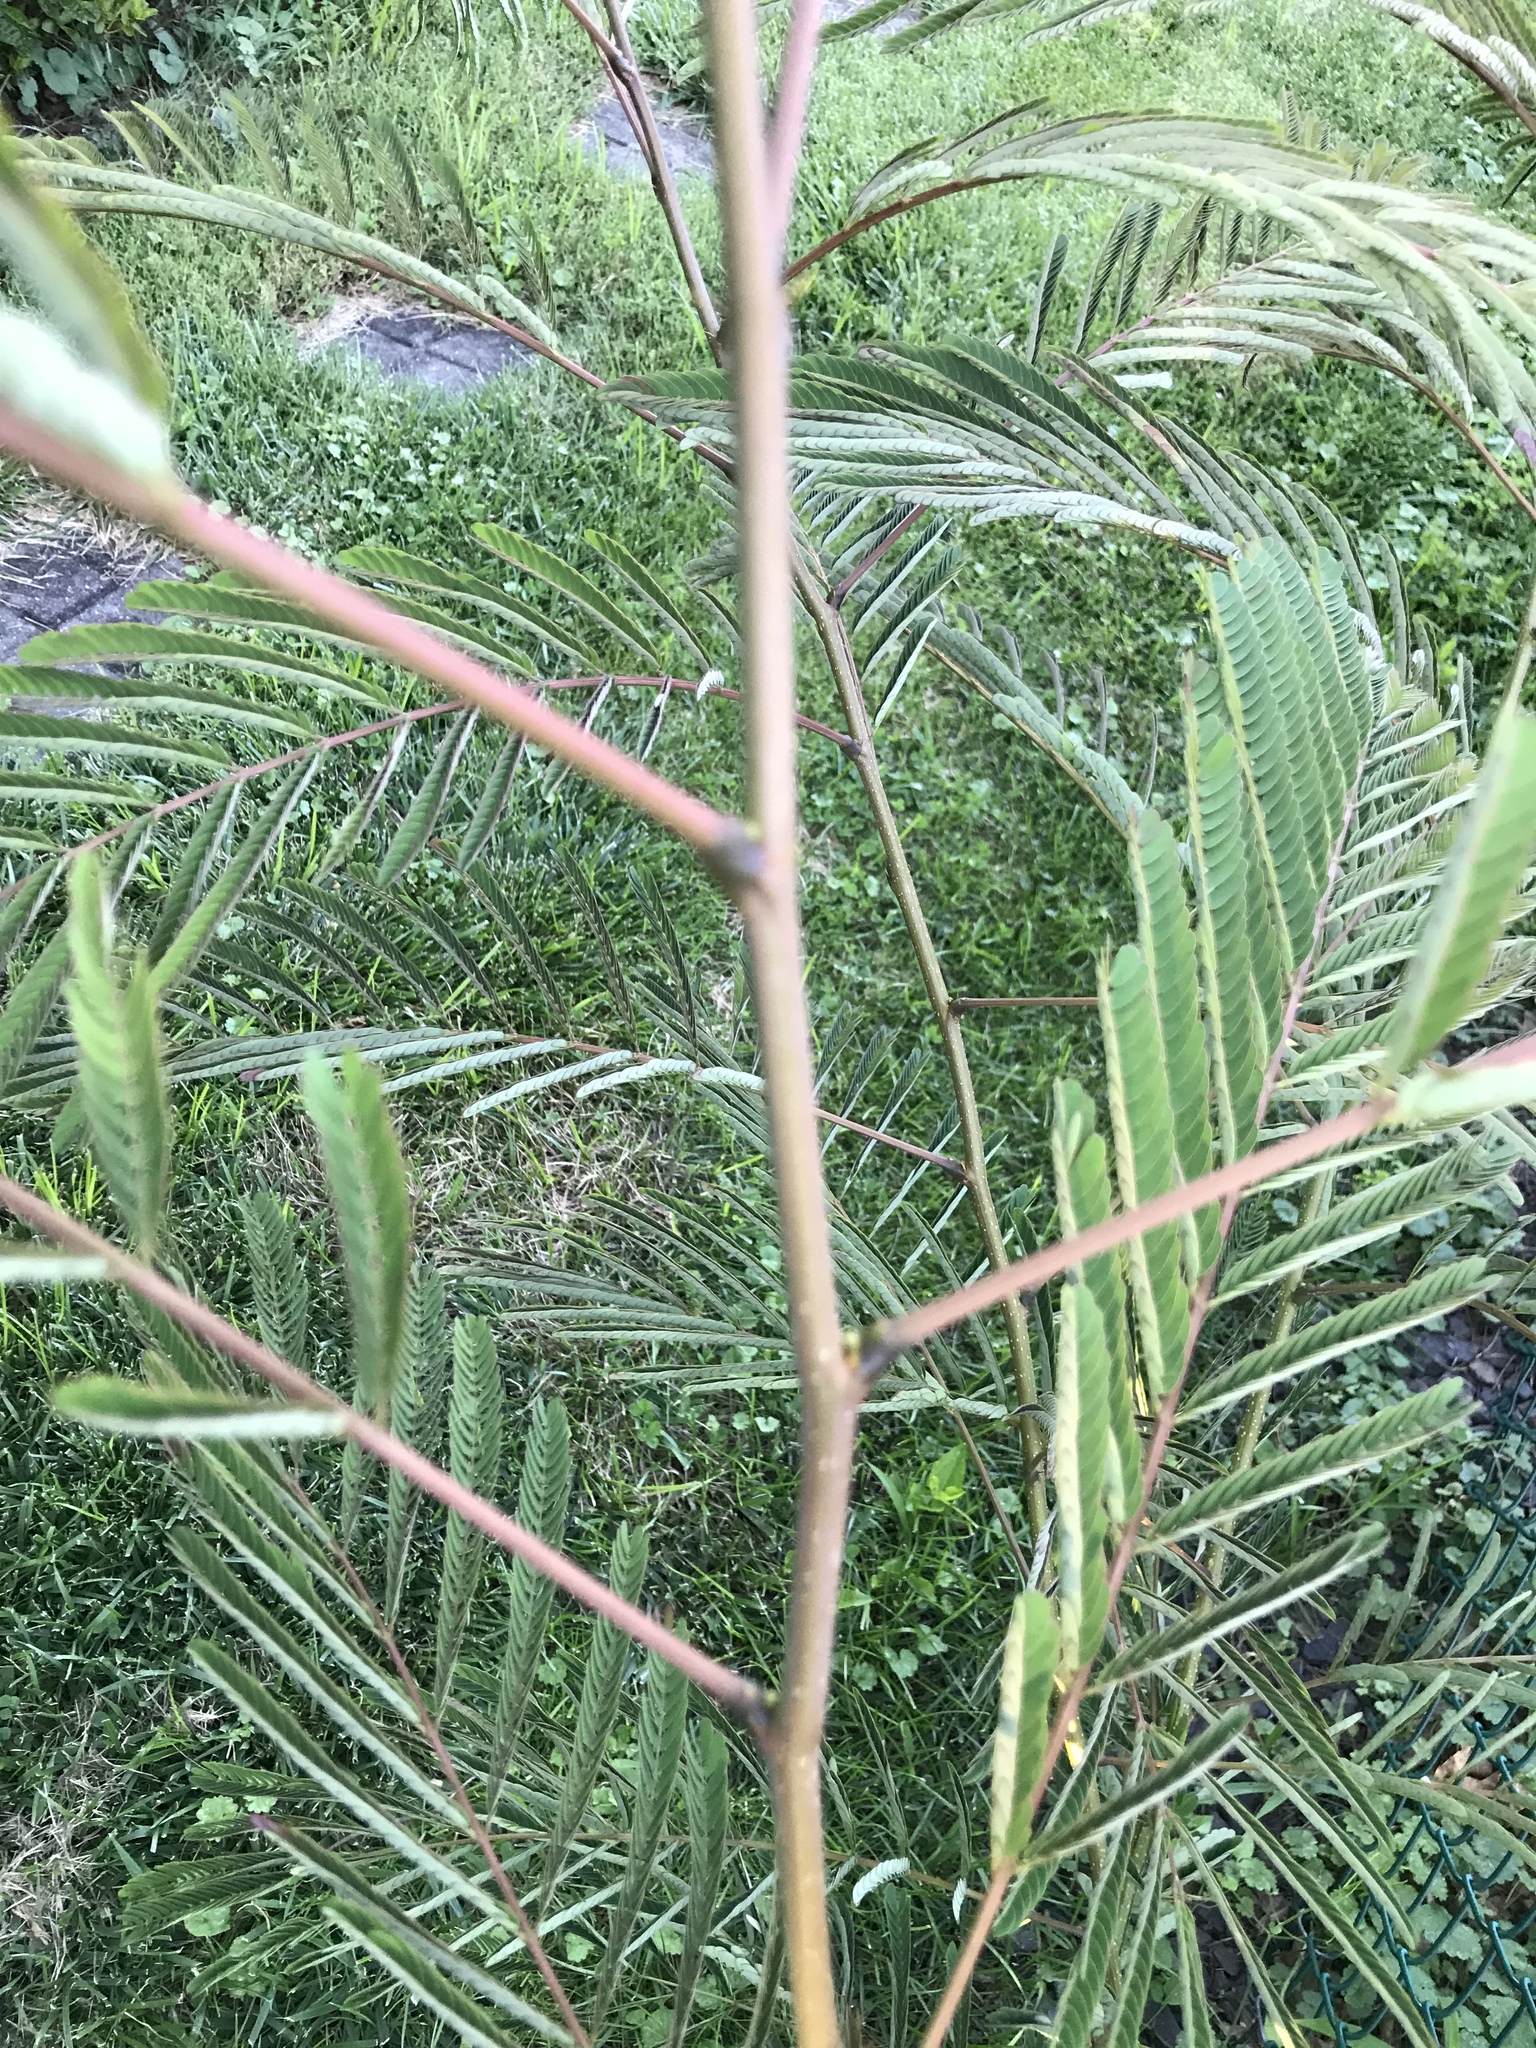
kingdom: Plantae
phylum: Tracheophyta
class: Magnoliopsida
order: Fabales
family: Fabaceae
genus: Albizia
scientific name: Albizia julibrissin
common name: Silktree
